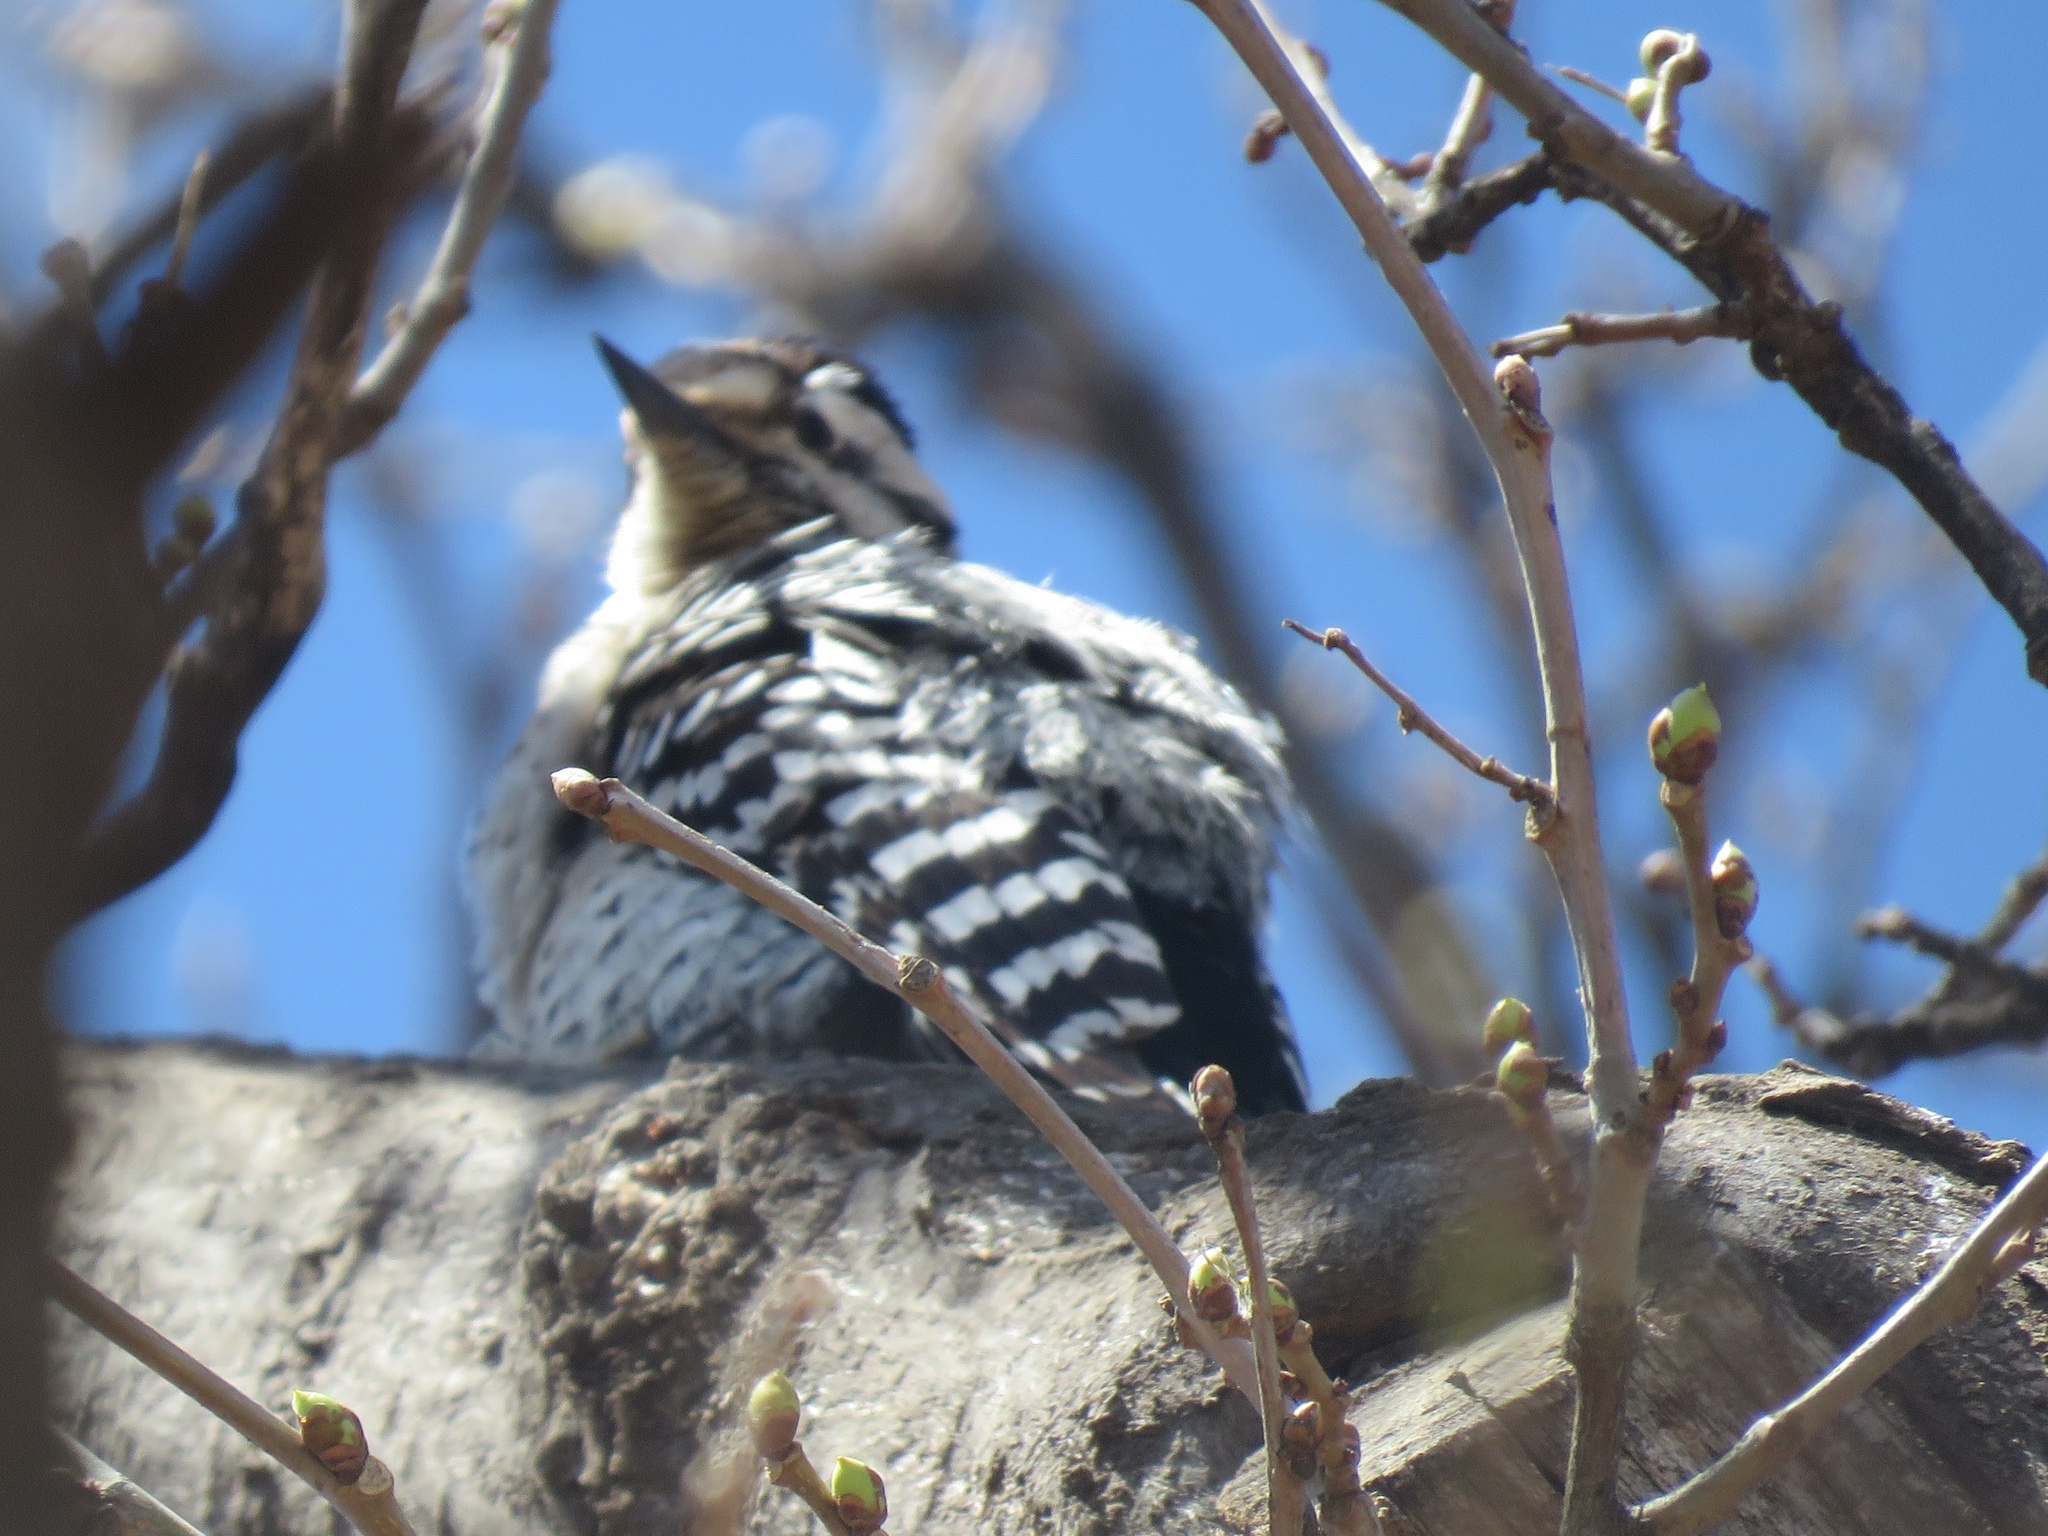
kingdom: Animalia
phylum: Chordata
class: Aves
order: Piciformes
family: Picidae
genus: Dryobates
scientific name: Dryobates scalaris
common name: Ladder-backed woodpecker
